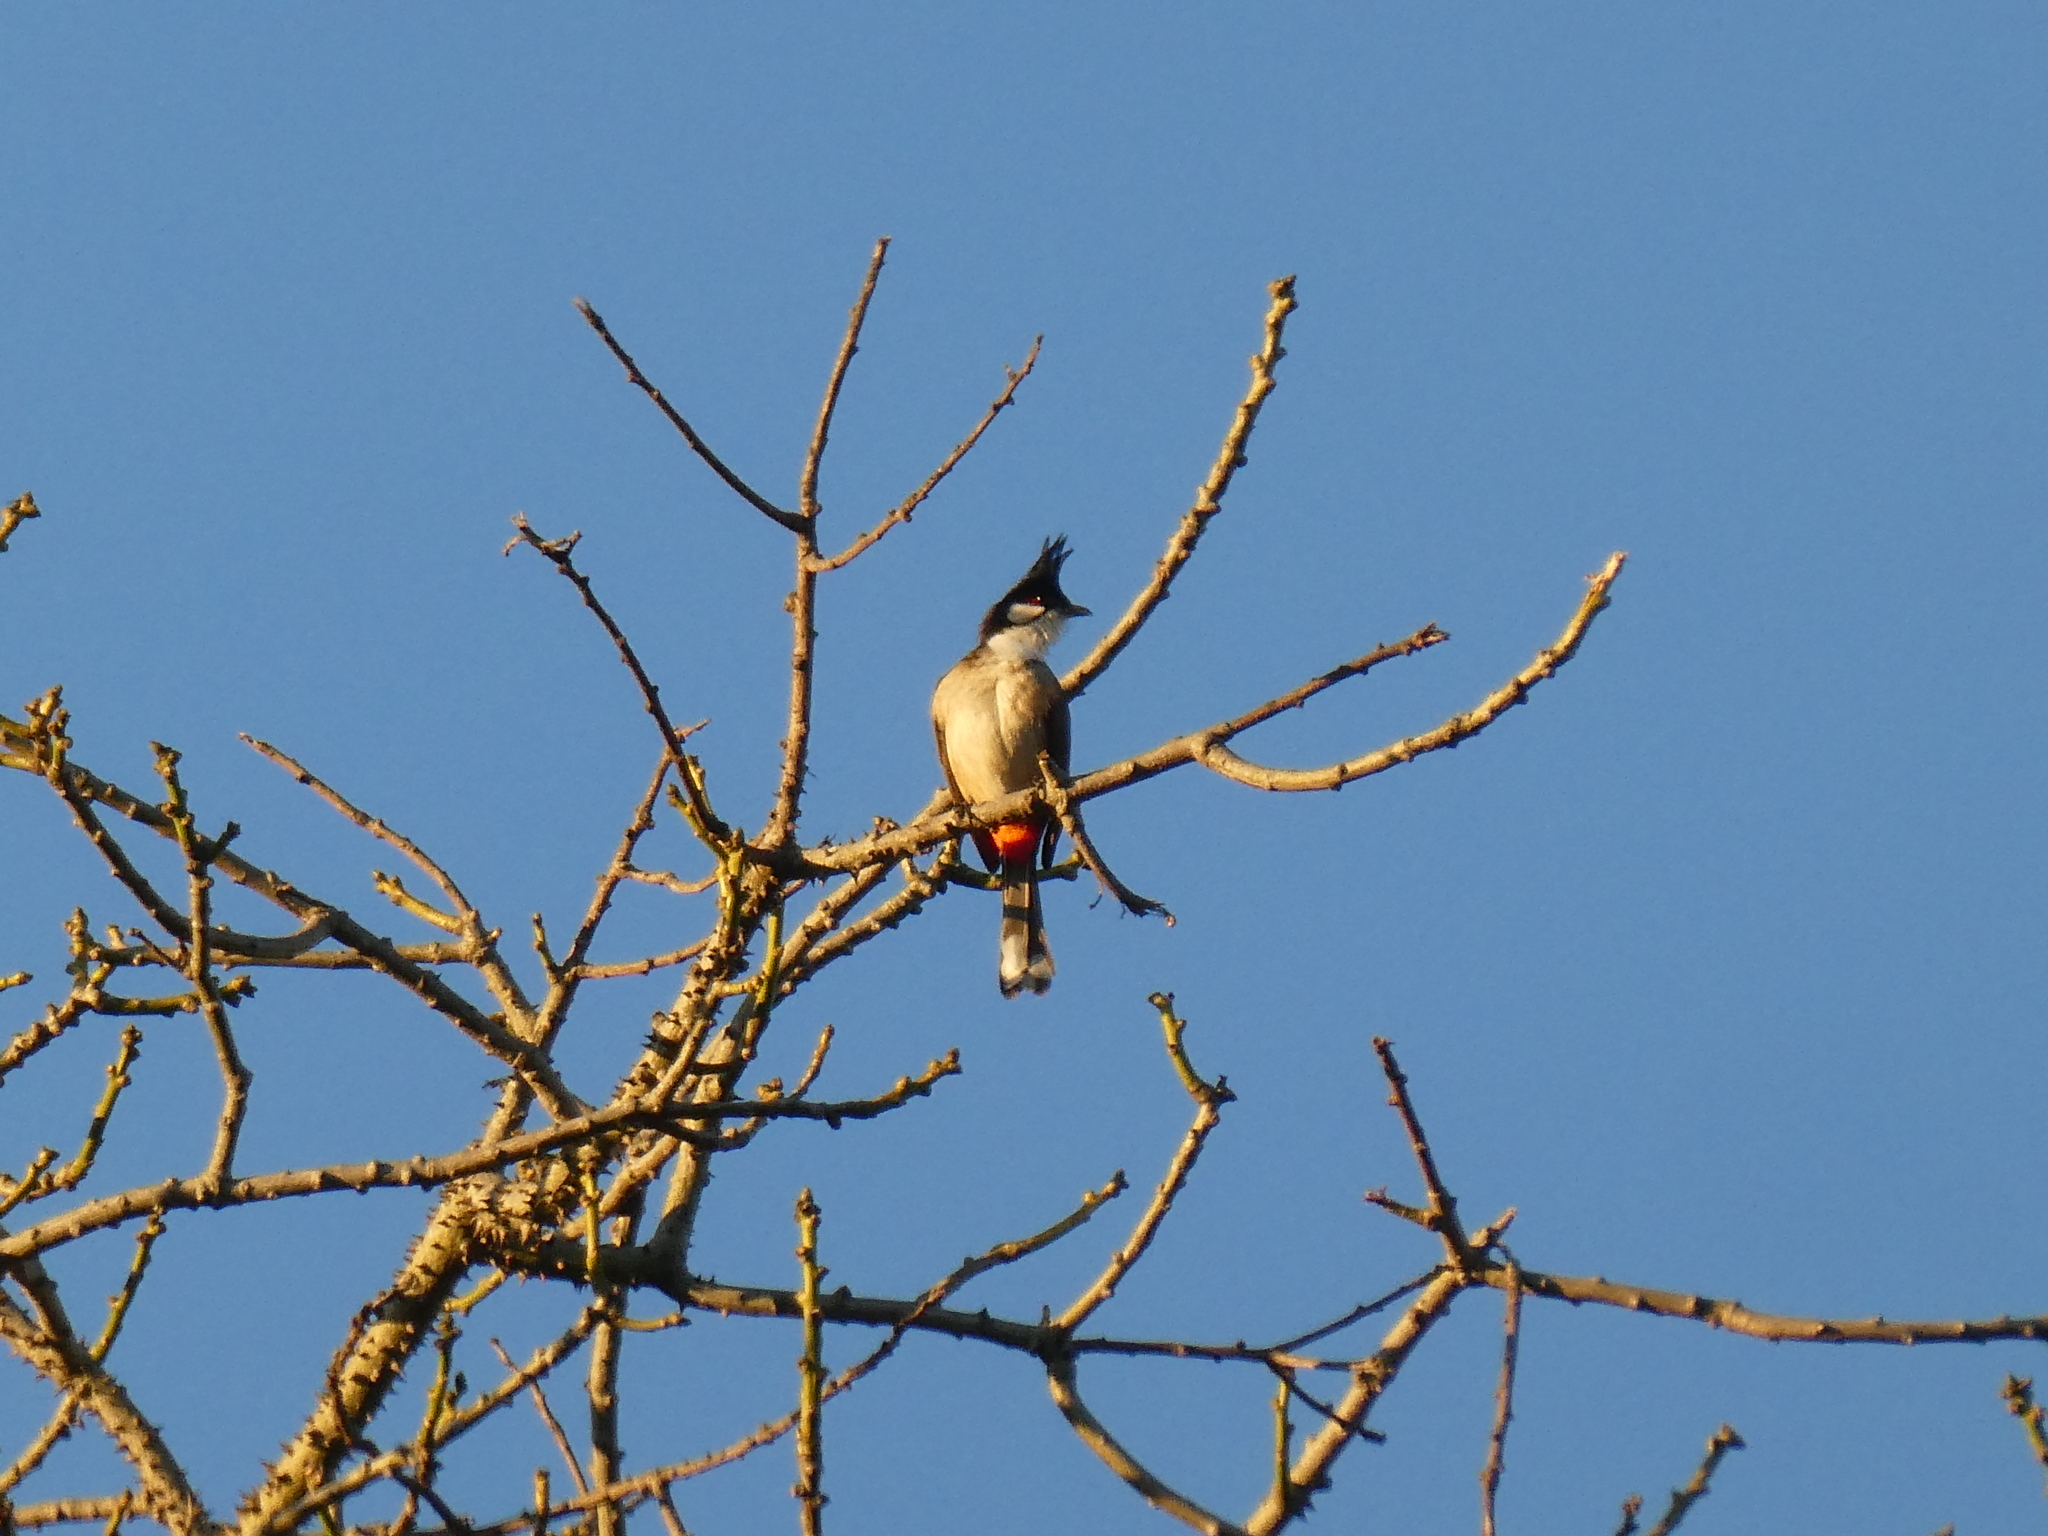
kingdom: Animalia
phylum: Chordata
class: Aves
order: Passeriformes
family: Pycnonotidae
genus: Pycnonotus
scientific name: Pycnonotus jocosus
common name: Red-whiskered bulbul
